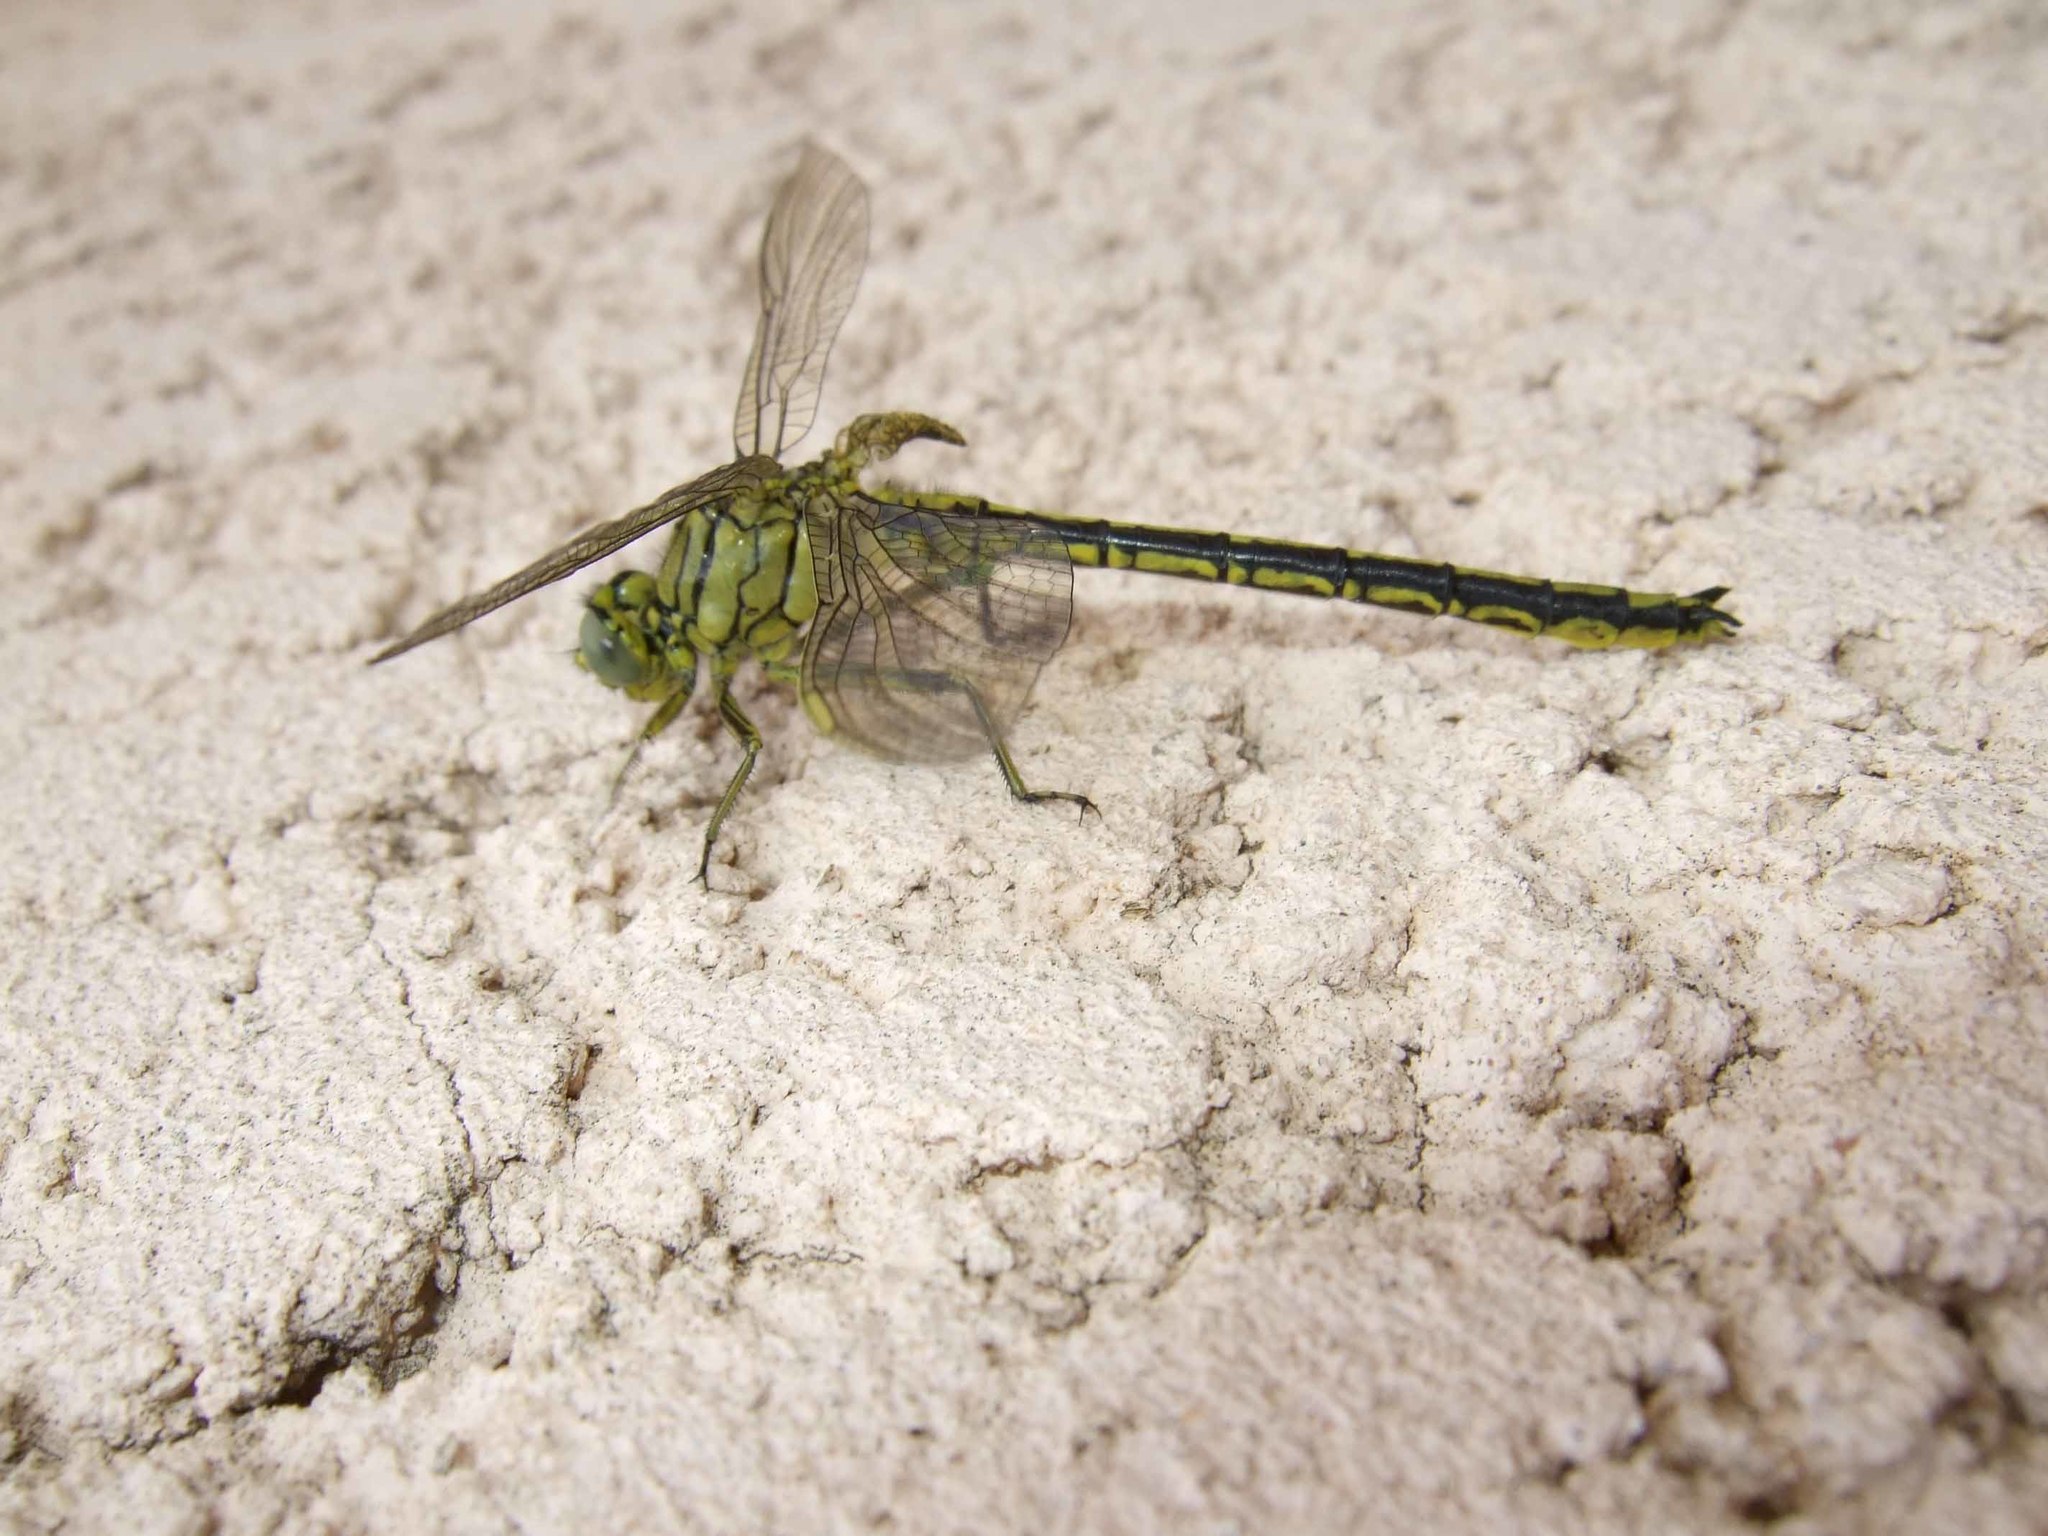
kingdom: Animalia
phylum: Arthropoda
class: Insecta
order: Odonata
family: Gomphidae
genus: Gomphus
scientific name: Gomphus pulchellus
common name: Western clubtail
